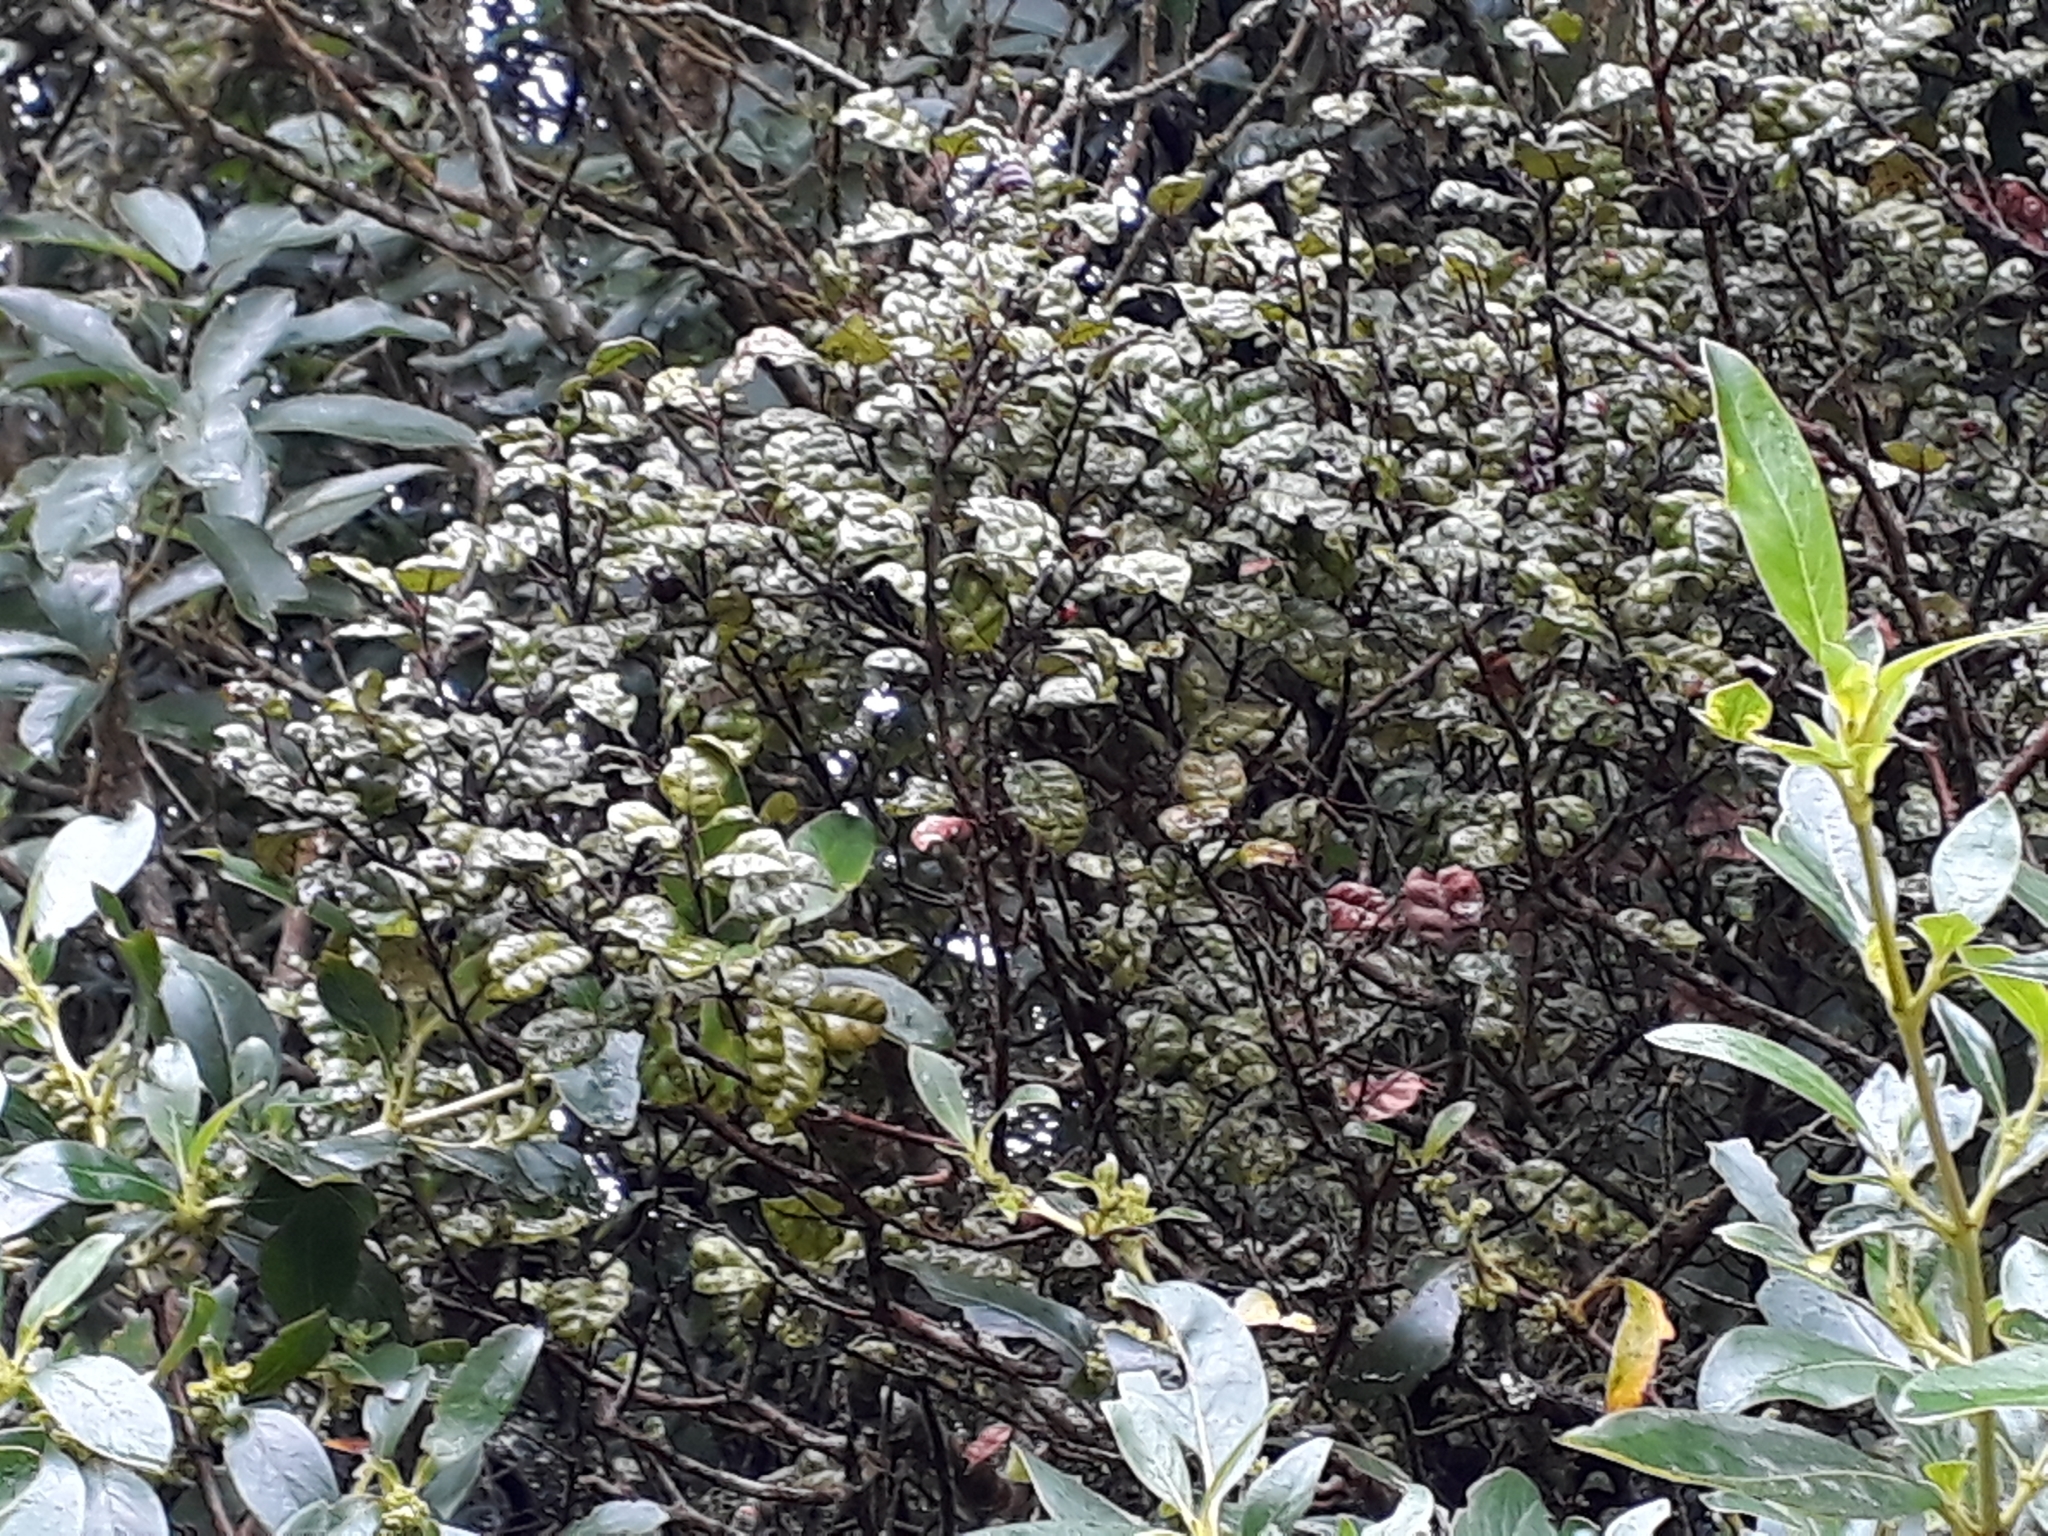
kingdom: Plantae
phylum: Tracheophyta
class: Magnoliopsida
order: Myrtales
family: Myrtaceae
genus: Lophomyrtus
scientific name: Lophomyrtus bullata
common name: Rama rama
